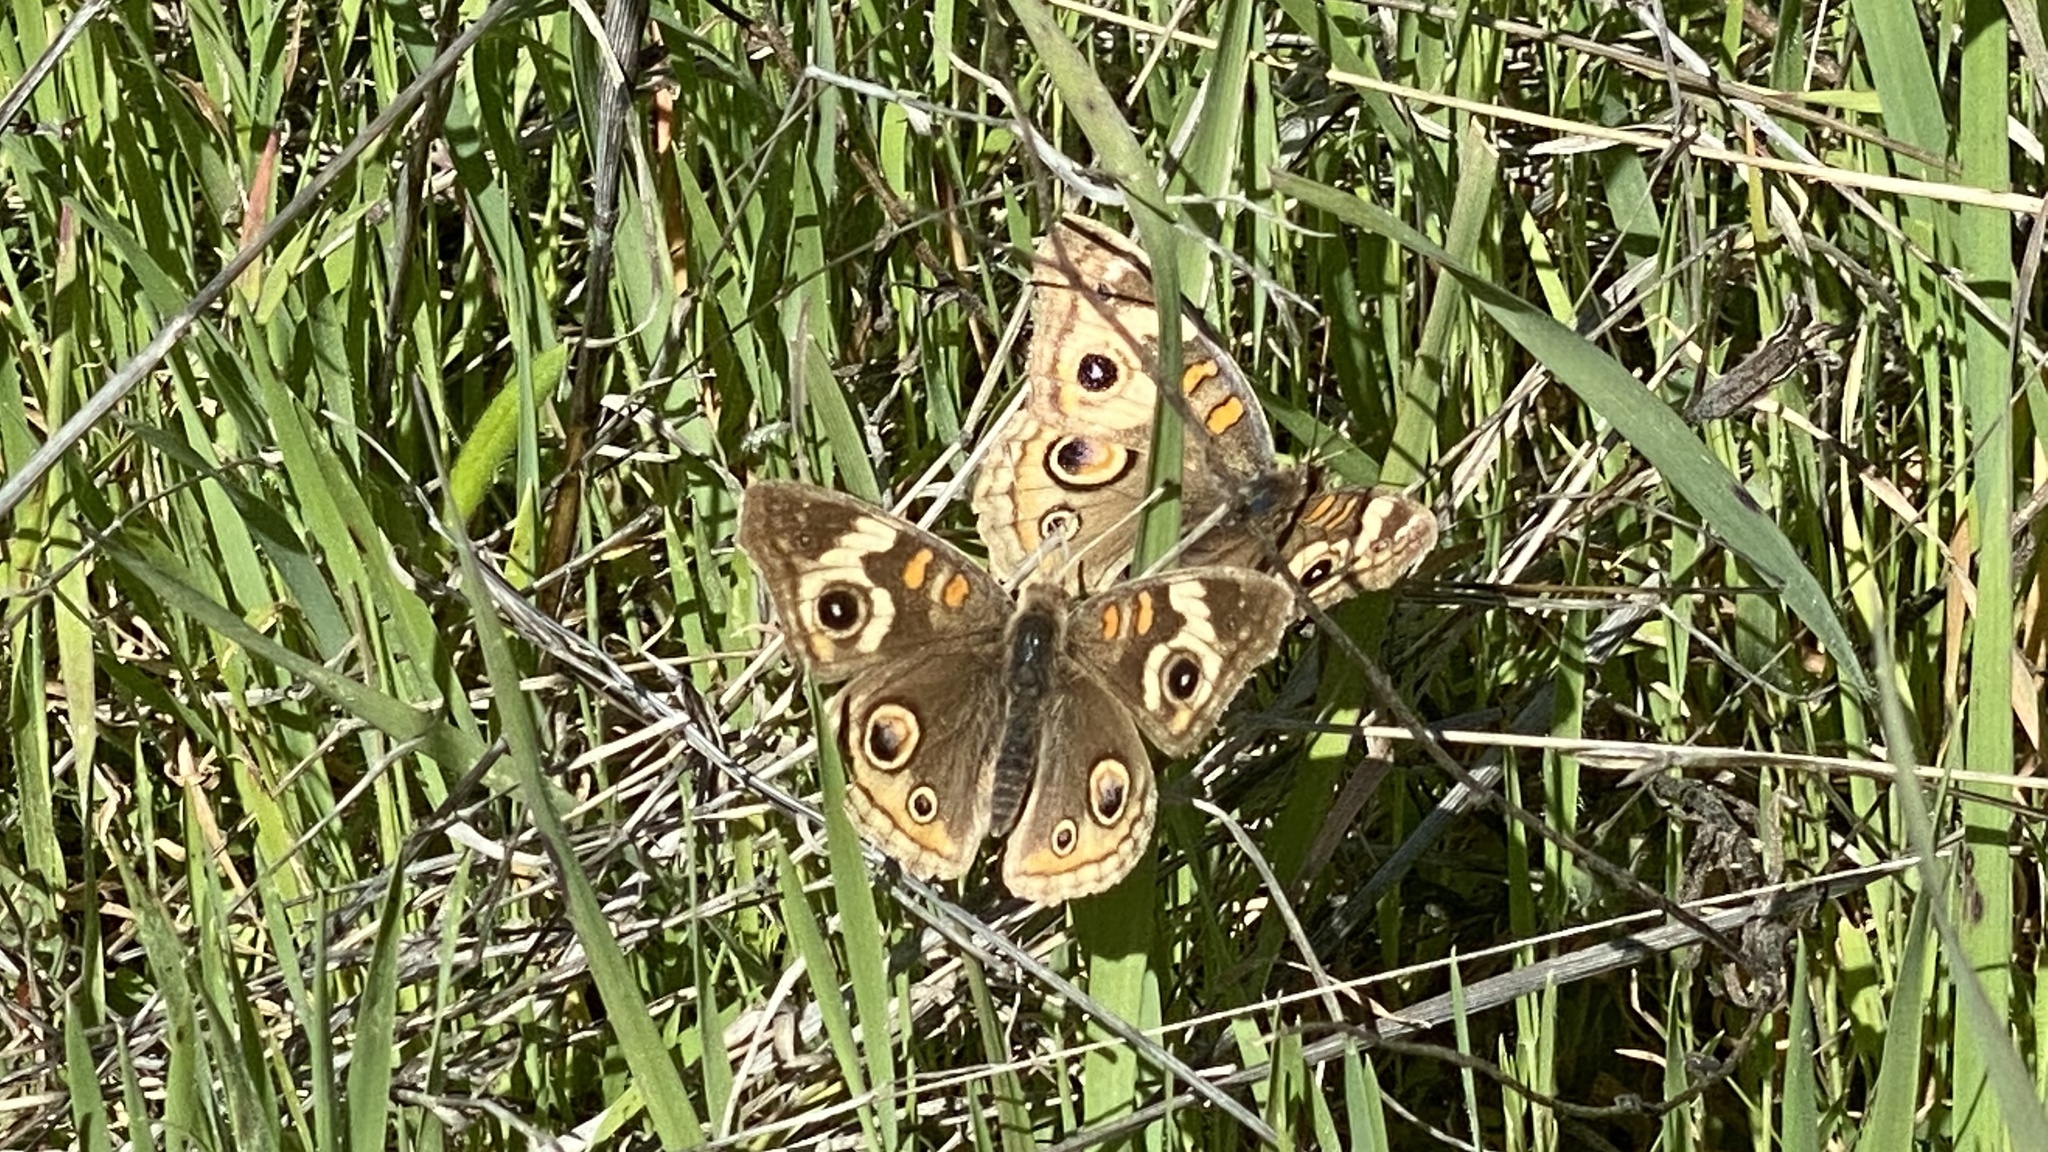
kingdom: Animalia
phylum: Arthropoda
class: Insecta
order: Lepidoptera
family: Nymphalidae
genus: Junonia
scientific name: Junonia grisea
